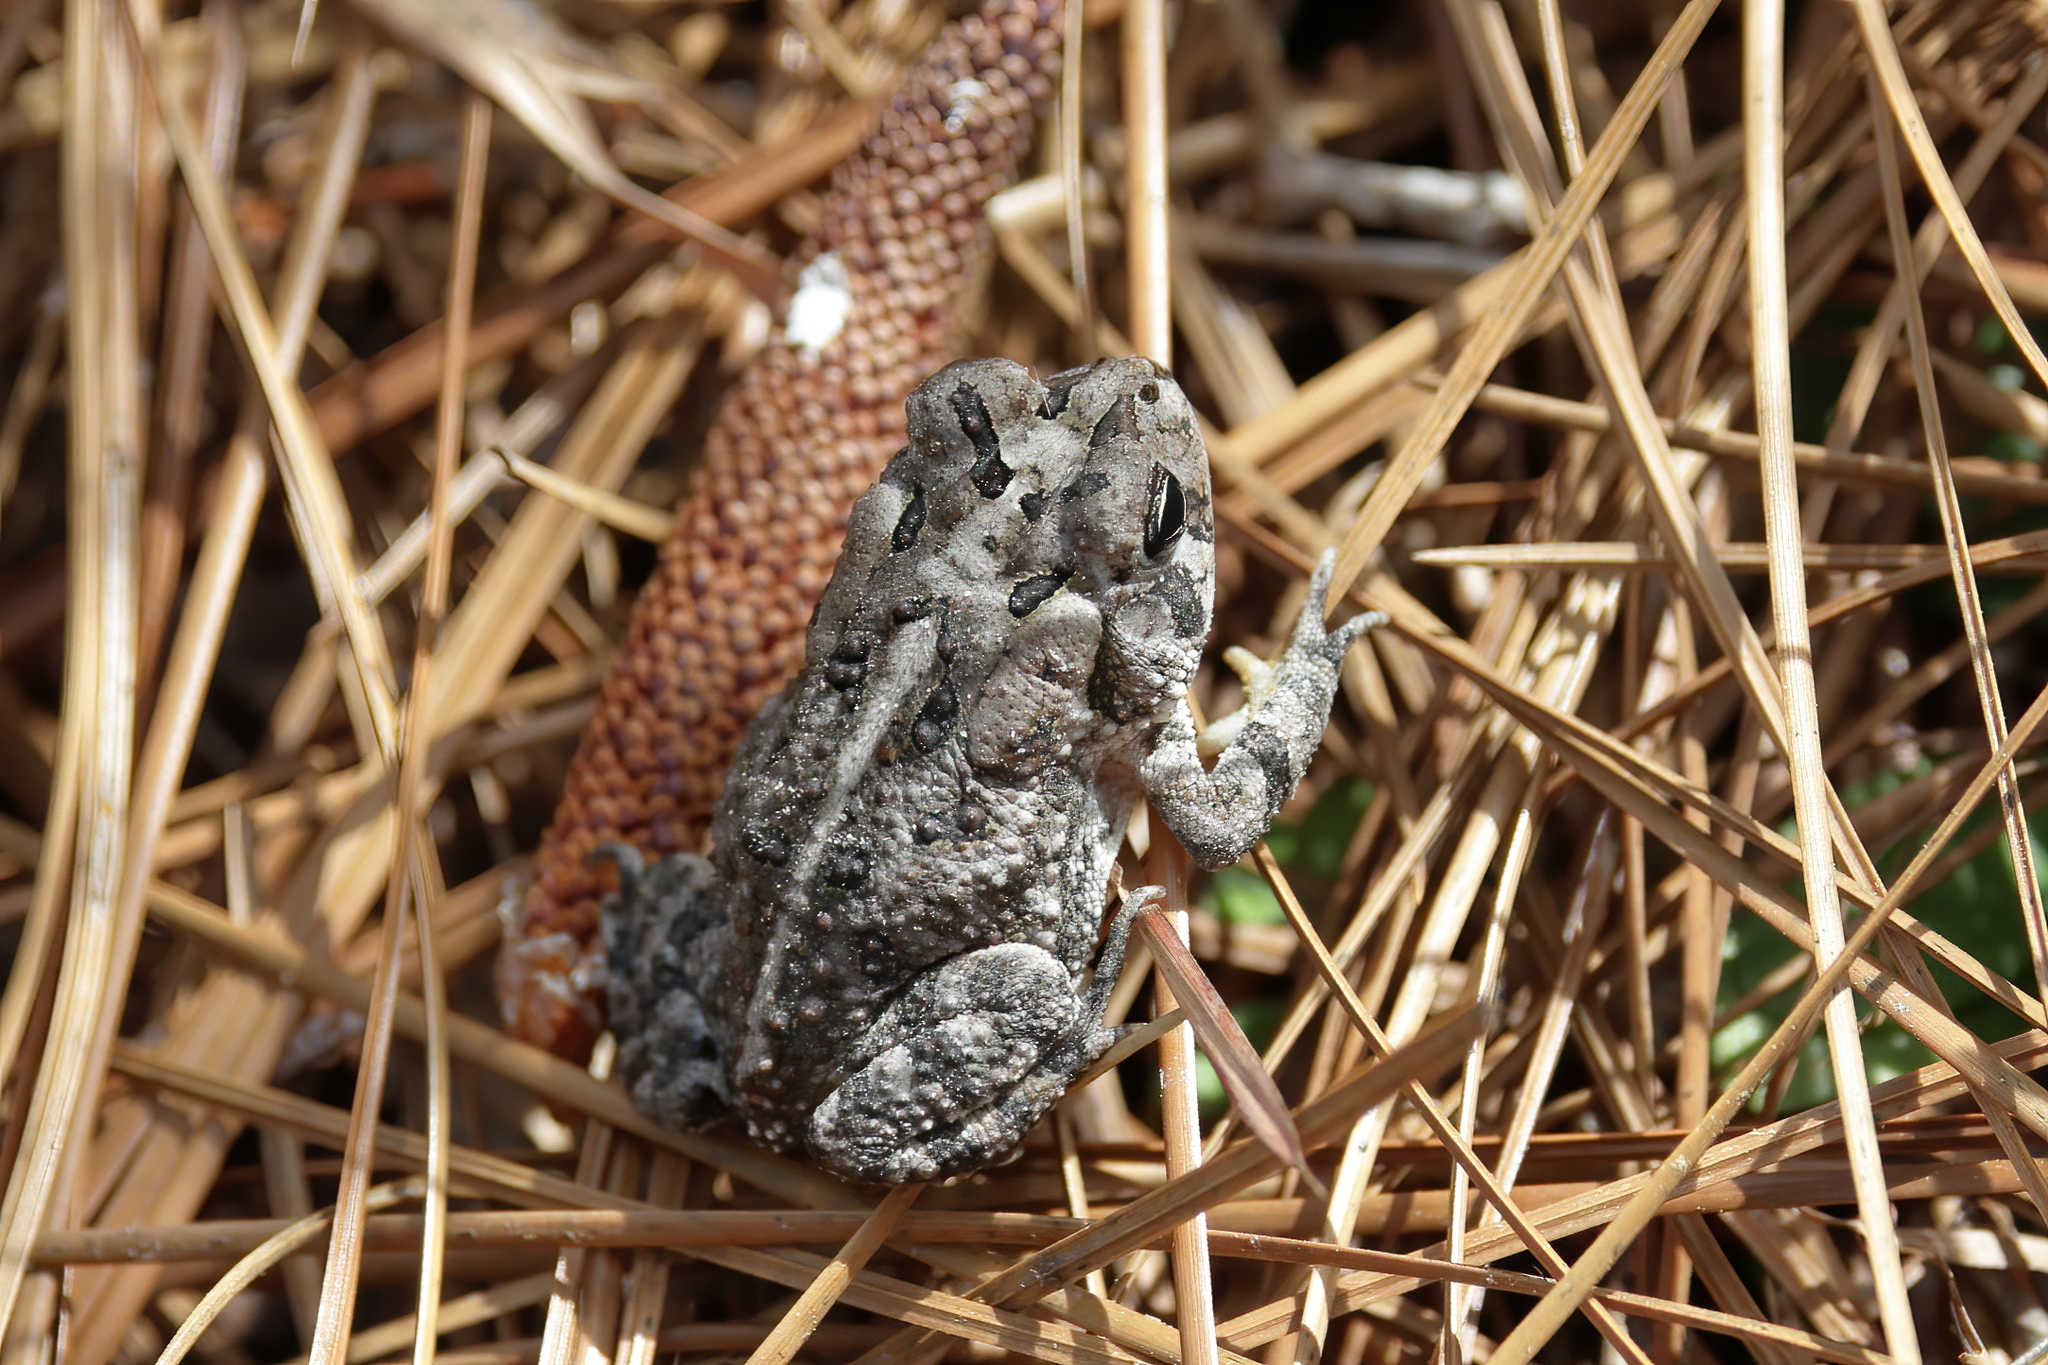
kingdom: Animalia
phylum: Chordata
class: Amphibia
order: Anura
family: Bufonidae
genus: Anaxyrus
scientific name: Anaxyrus terrestris
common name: Southern toad
